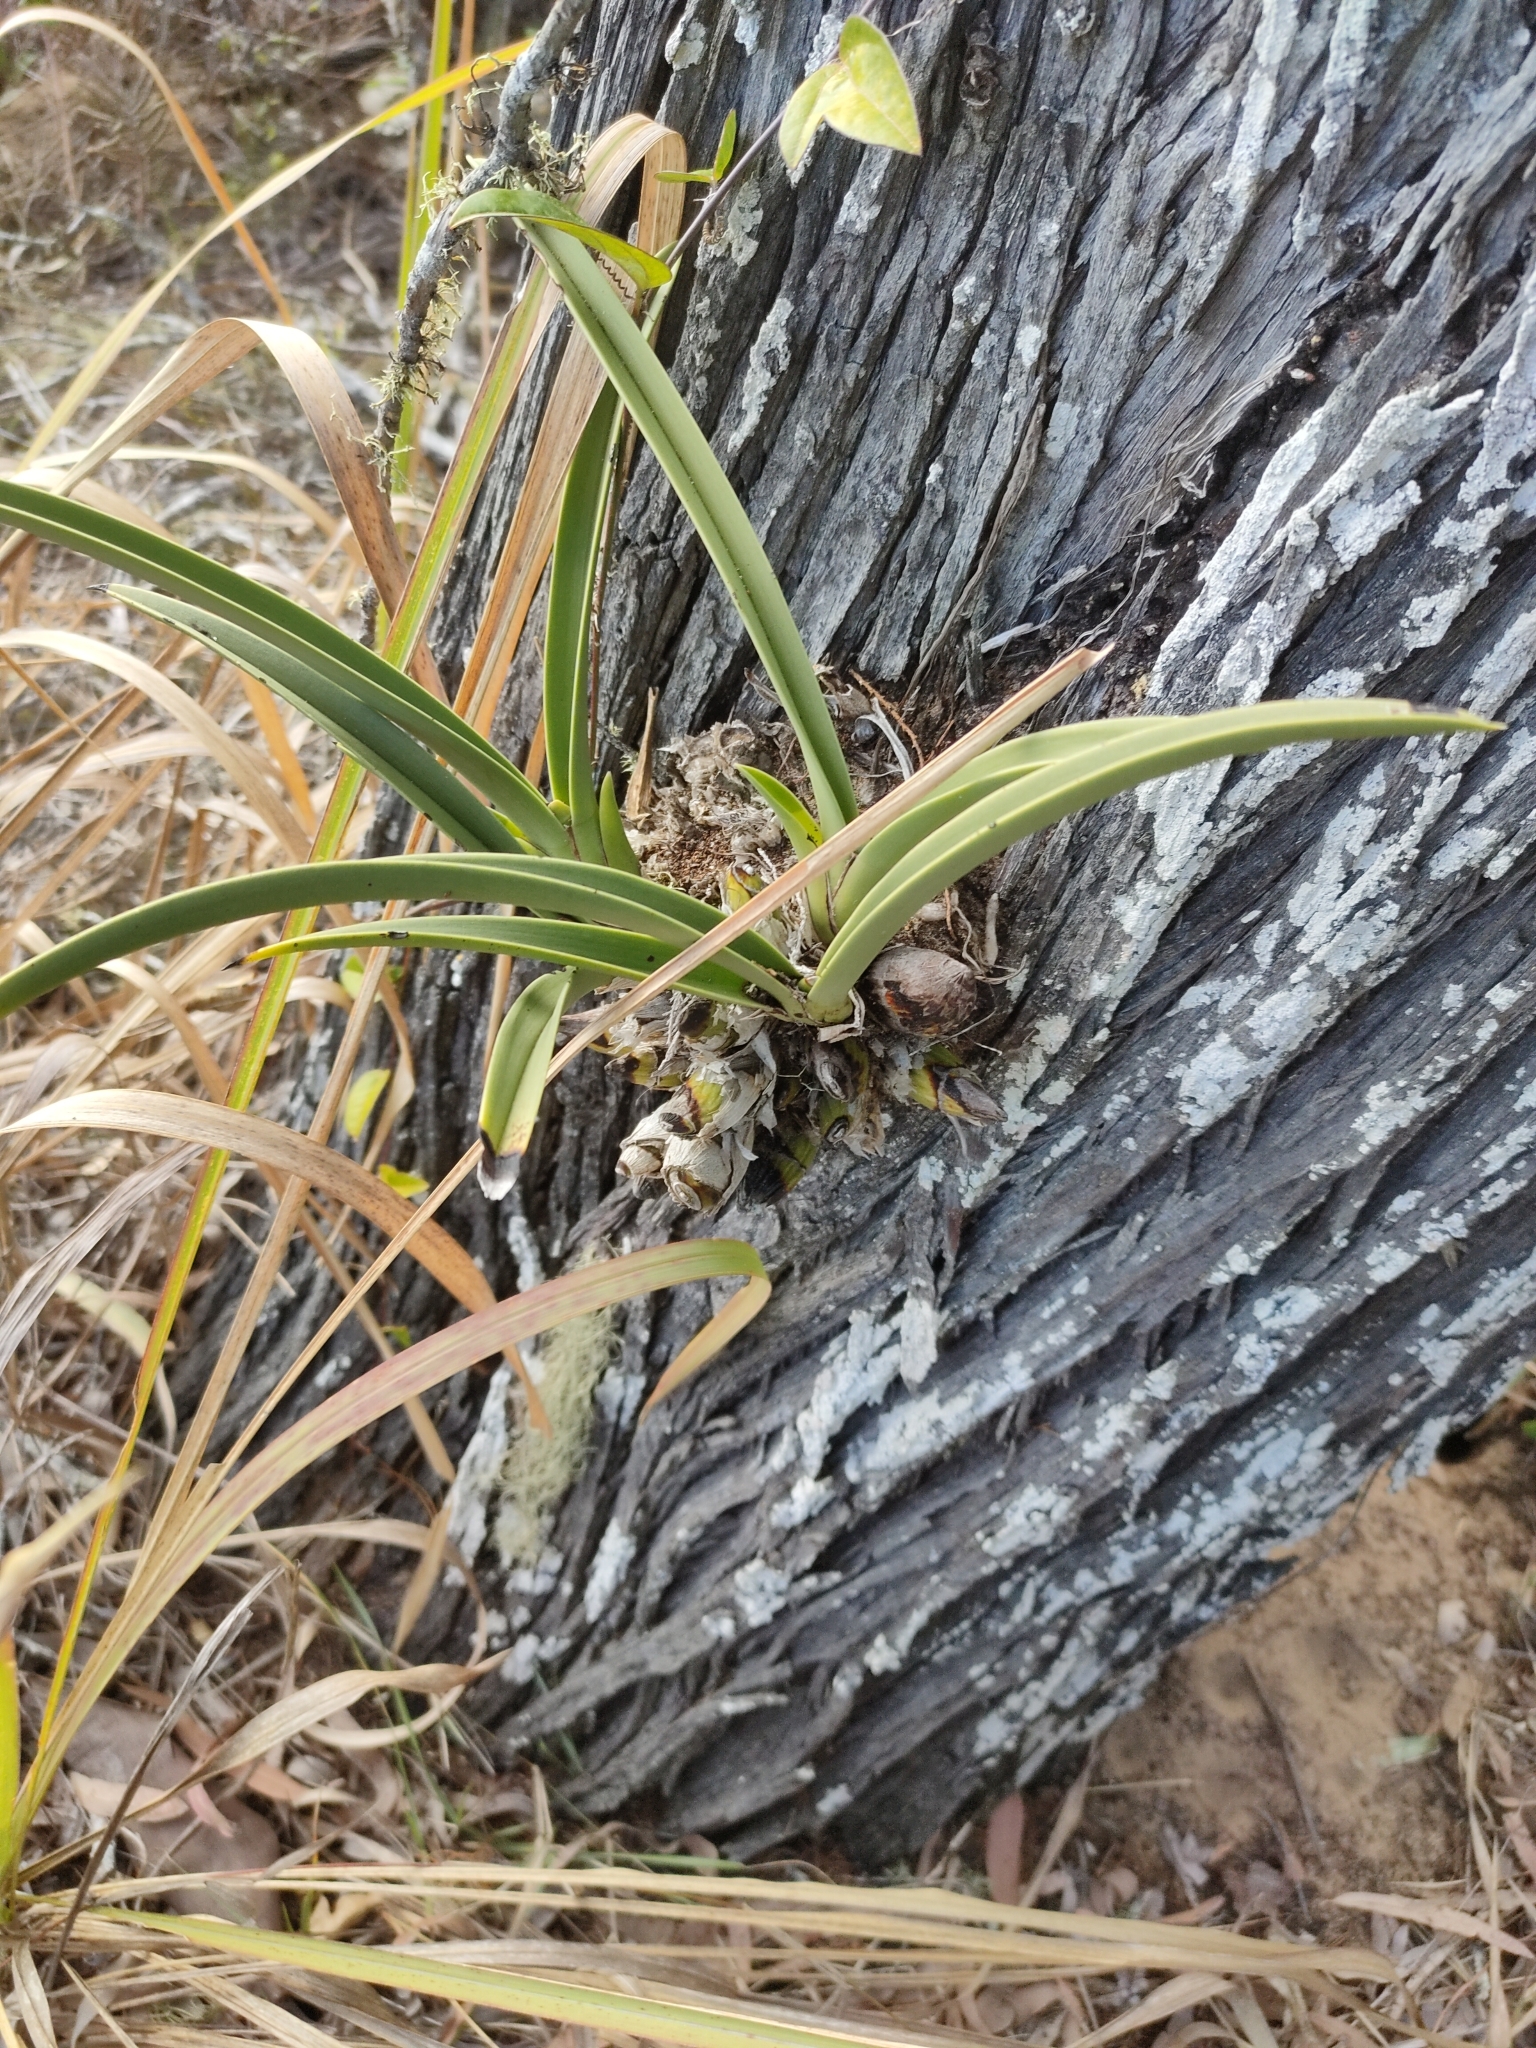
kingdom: Plantae
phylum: Tracheophyta
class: Liliopsida
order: Asparagales
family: Orchidaceae
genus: Cymbidium
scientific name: Cymbidium canaliculatum
